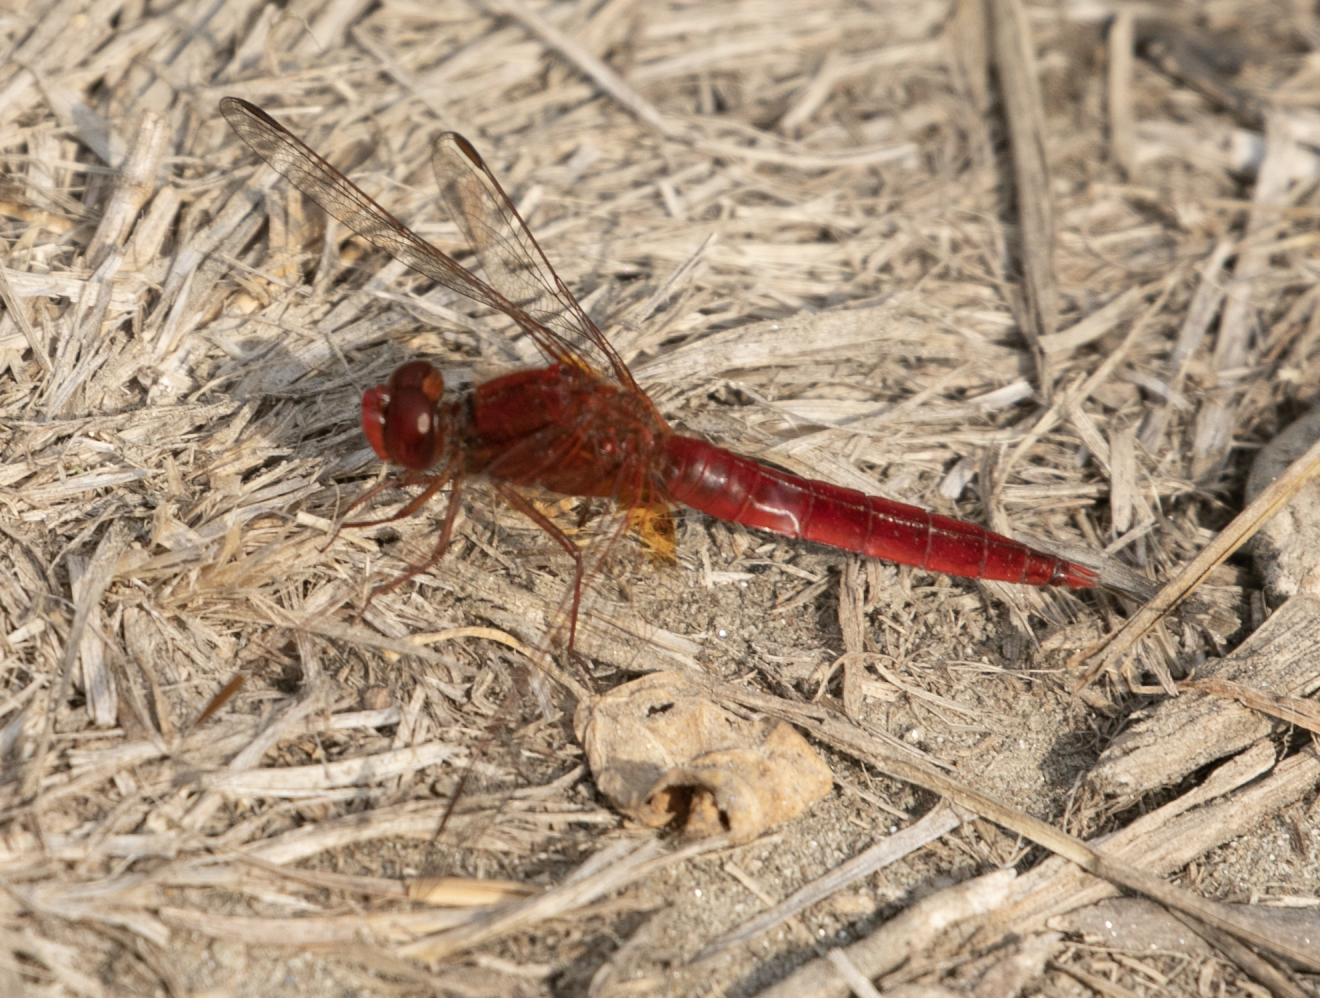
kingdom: Animalia
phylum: Arthropoda
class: Insecta
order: Odonata
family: Libellulidae
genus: Crocothemis
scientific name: Crocothemis erythraea
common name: Scarlet dragonfly
